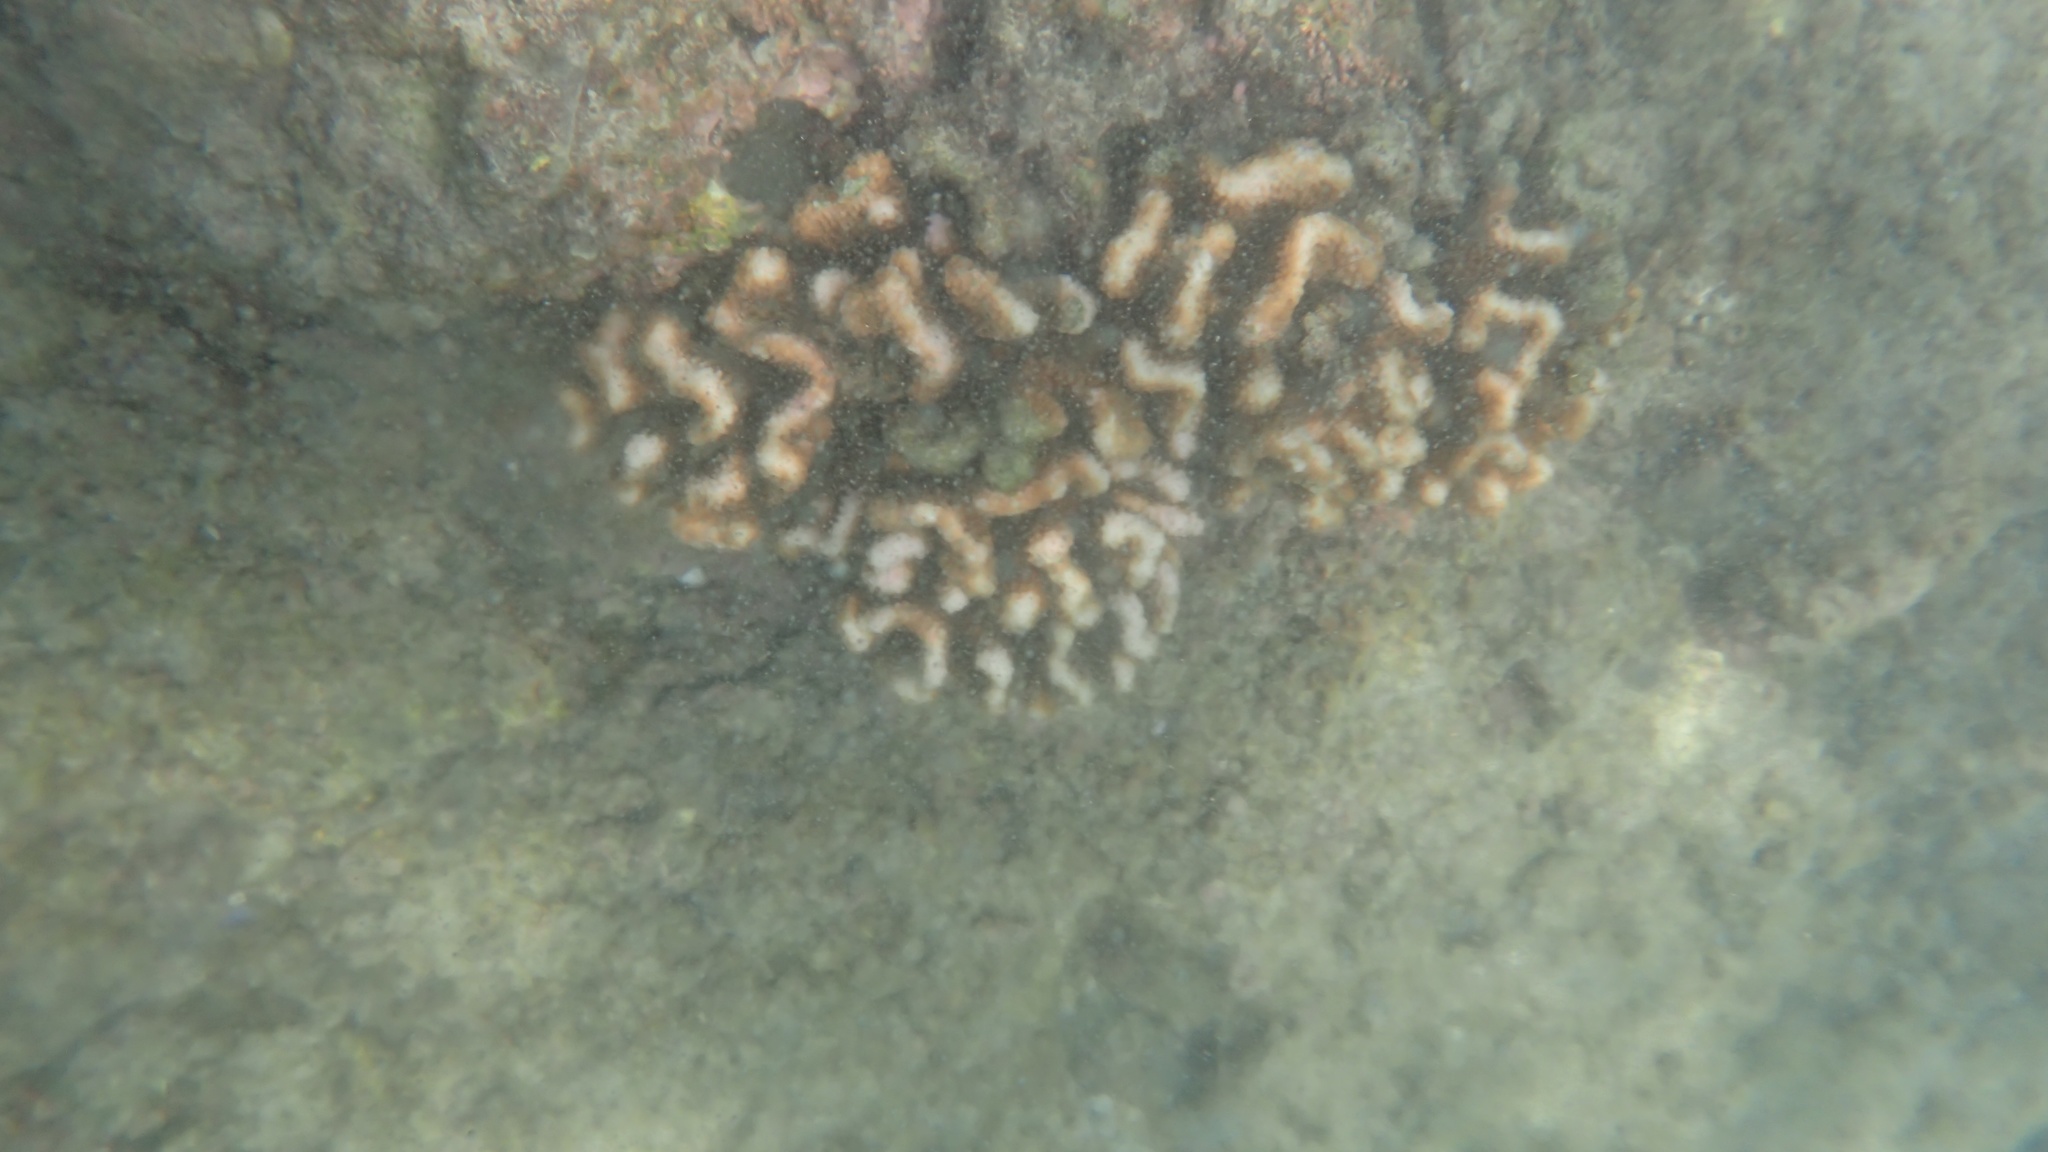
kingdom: Animalia
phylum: Cnidaria
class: Anthozoa
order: Scleractinia
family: Pocilloporidae
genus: Pocillopora
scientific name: Pocillopora meandrina
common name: Cauliflower coral
